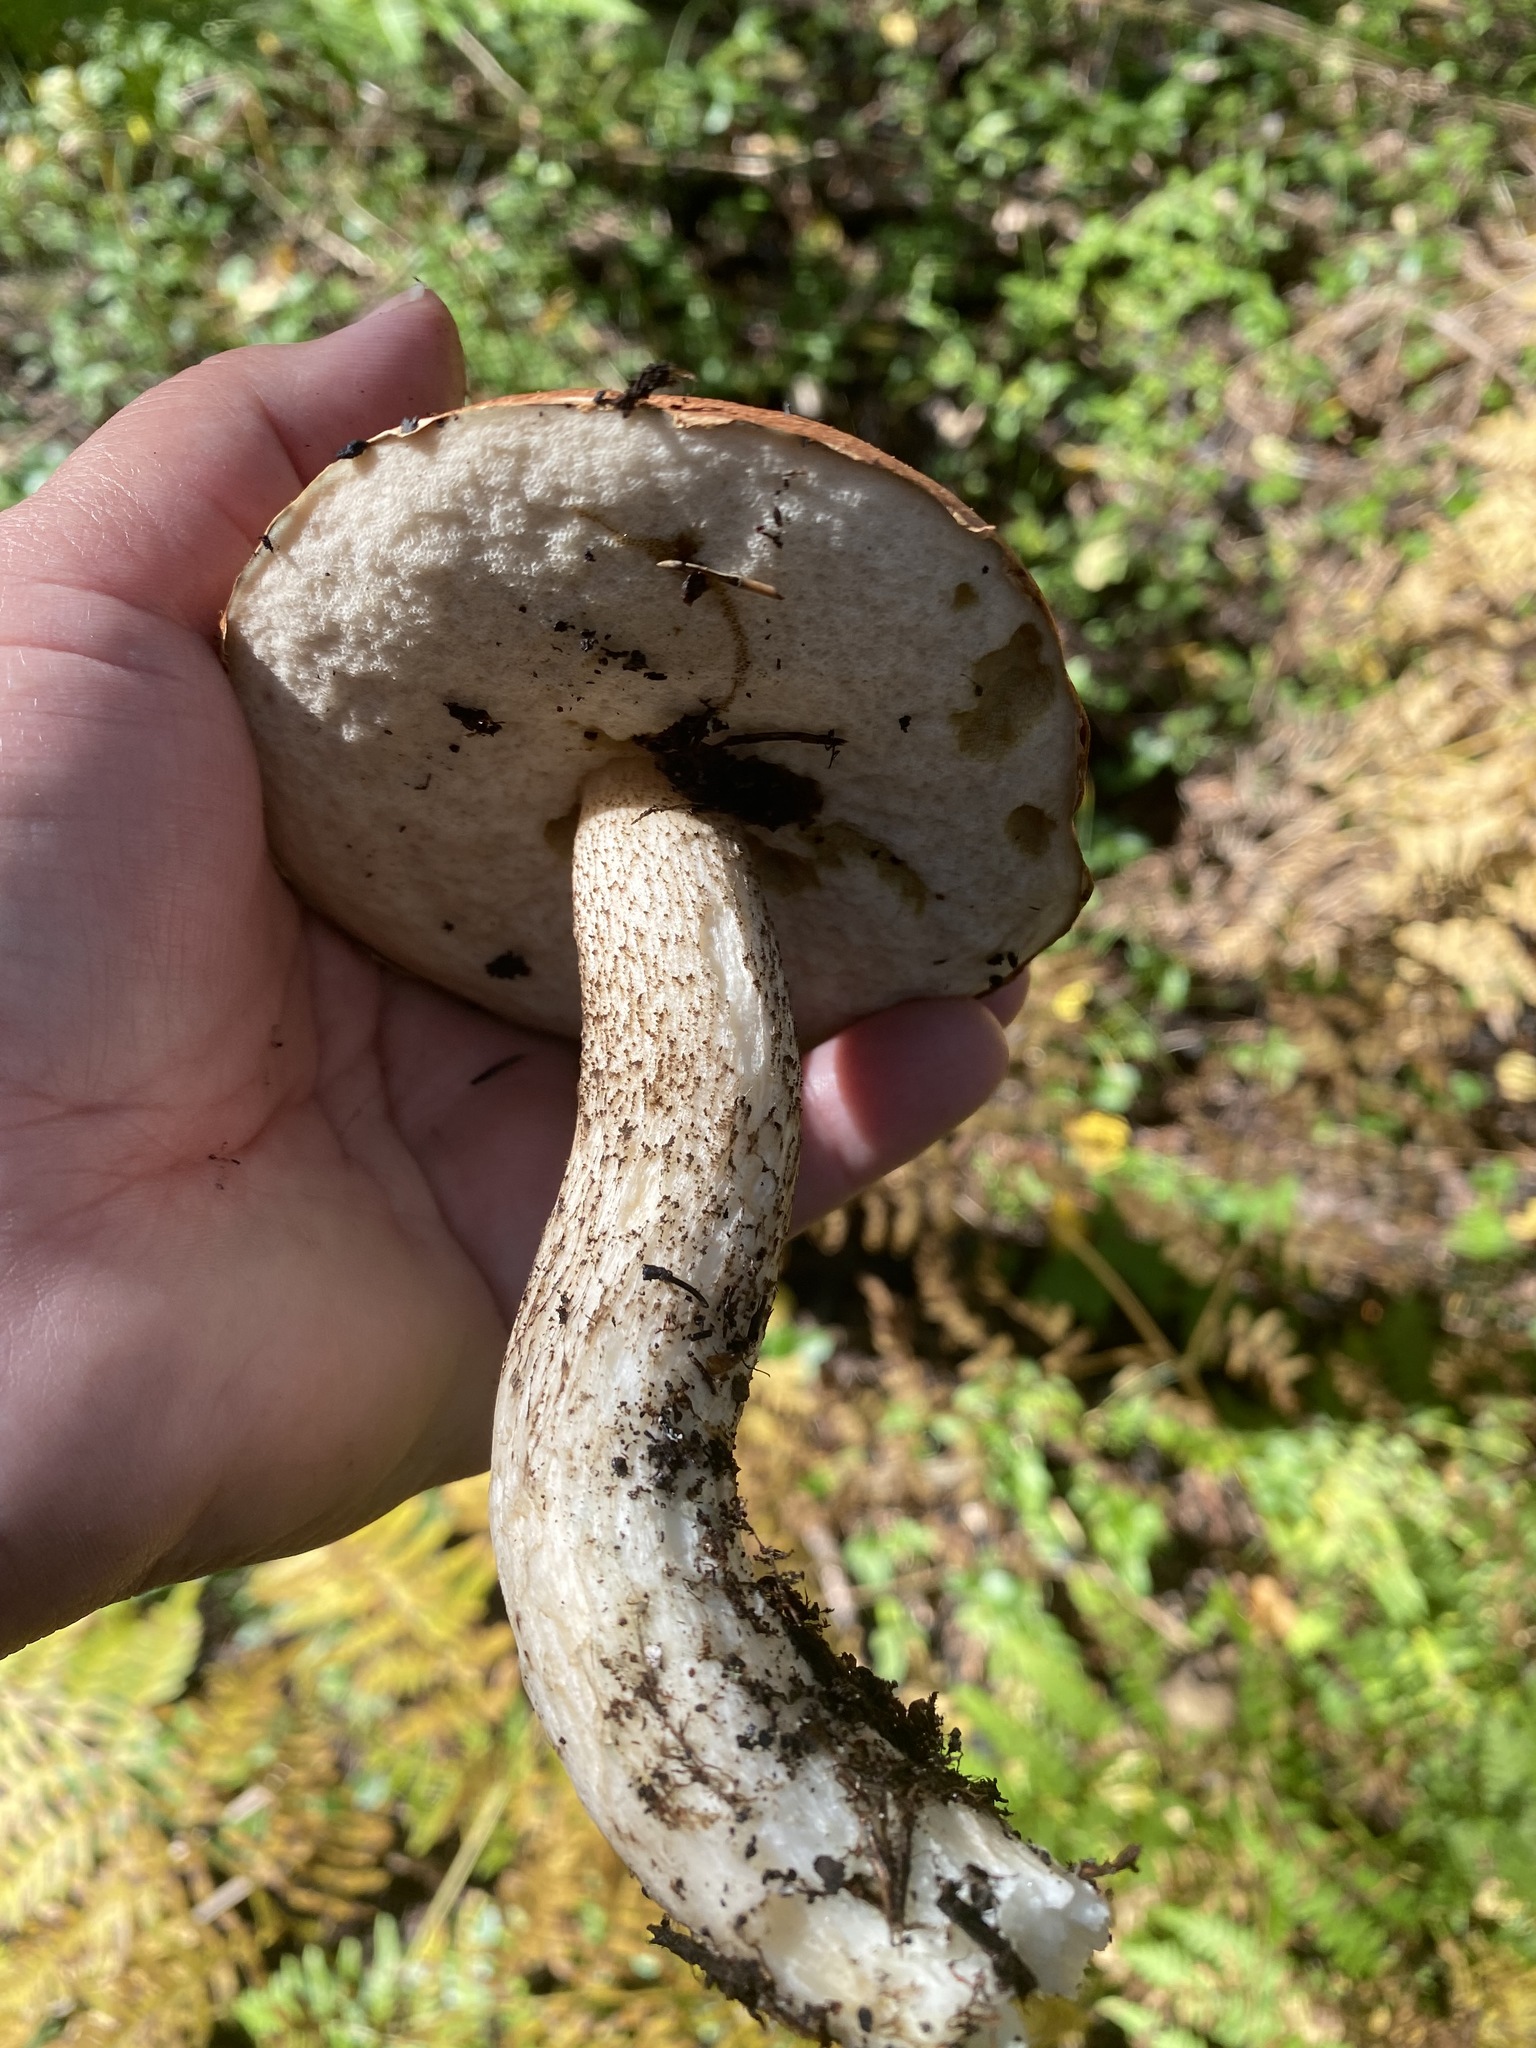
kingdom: Fungi
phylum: Basidiomycota
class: Agaricomycetes
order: Boletales
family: Boletaceae
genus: Leccinum
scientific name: Leccinum aurantiacum
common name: Orange bolete
